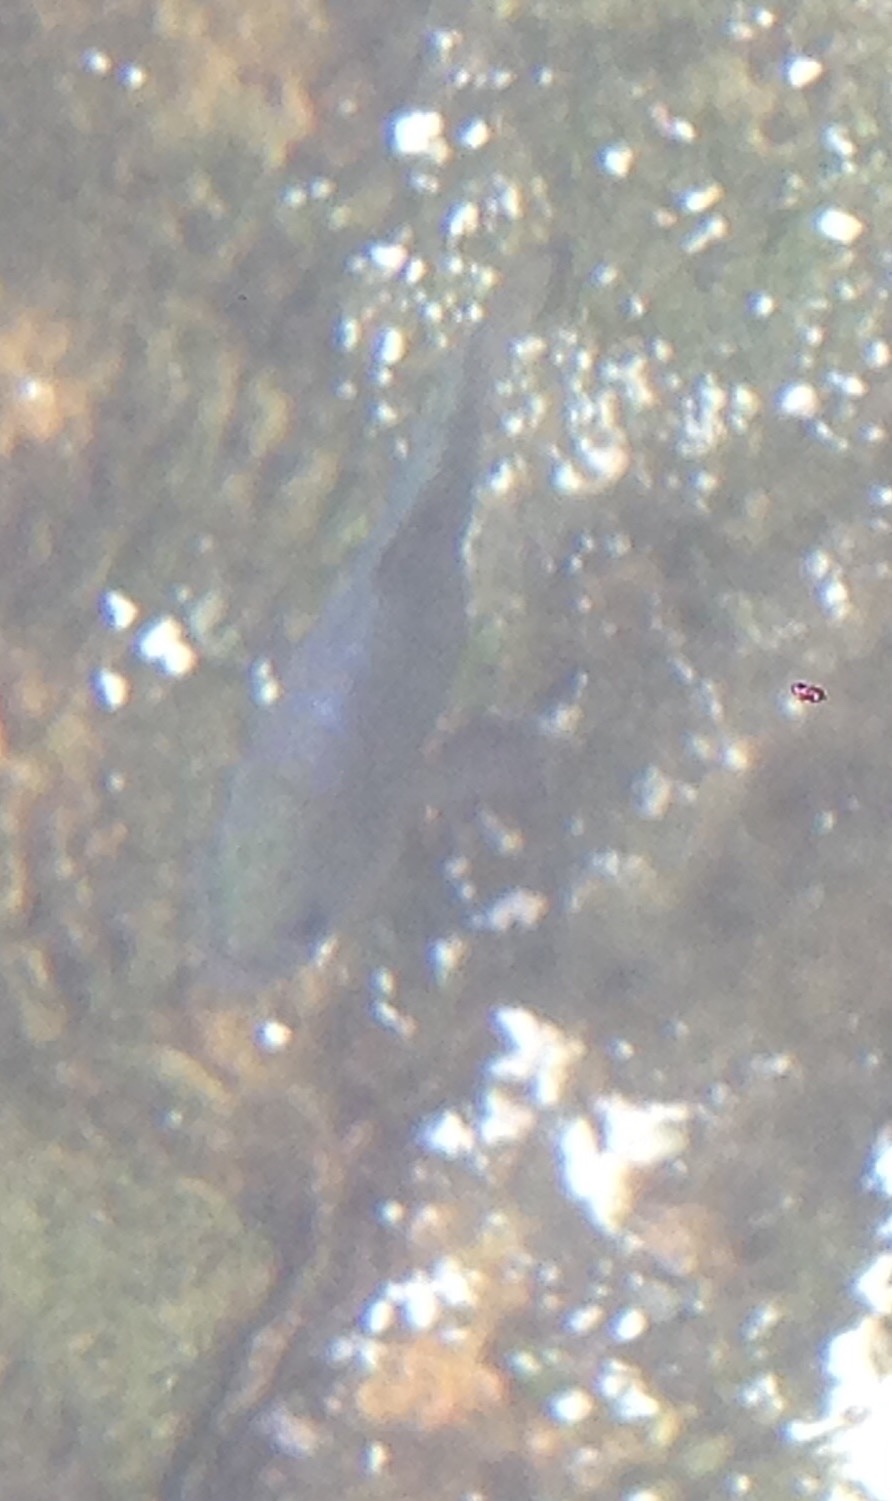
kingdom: Animalia
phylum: Chordata
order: Cyprinodontiformes
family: Cyprinodontidae
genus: Cyprinodon
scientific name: Cyprinodon nevadensis
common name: Amargosa pupfish
